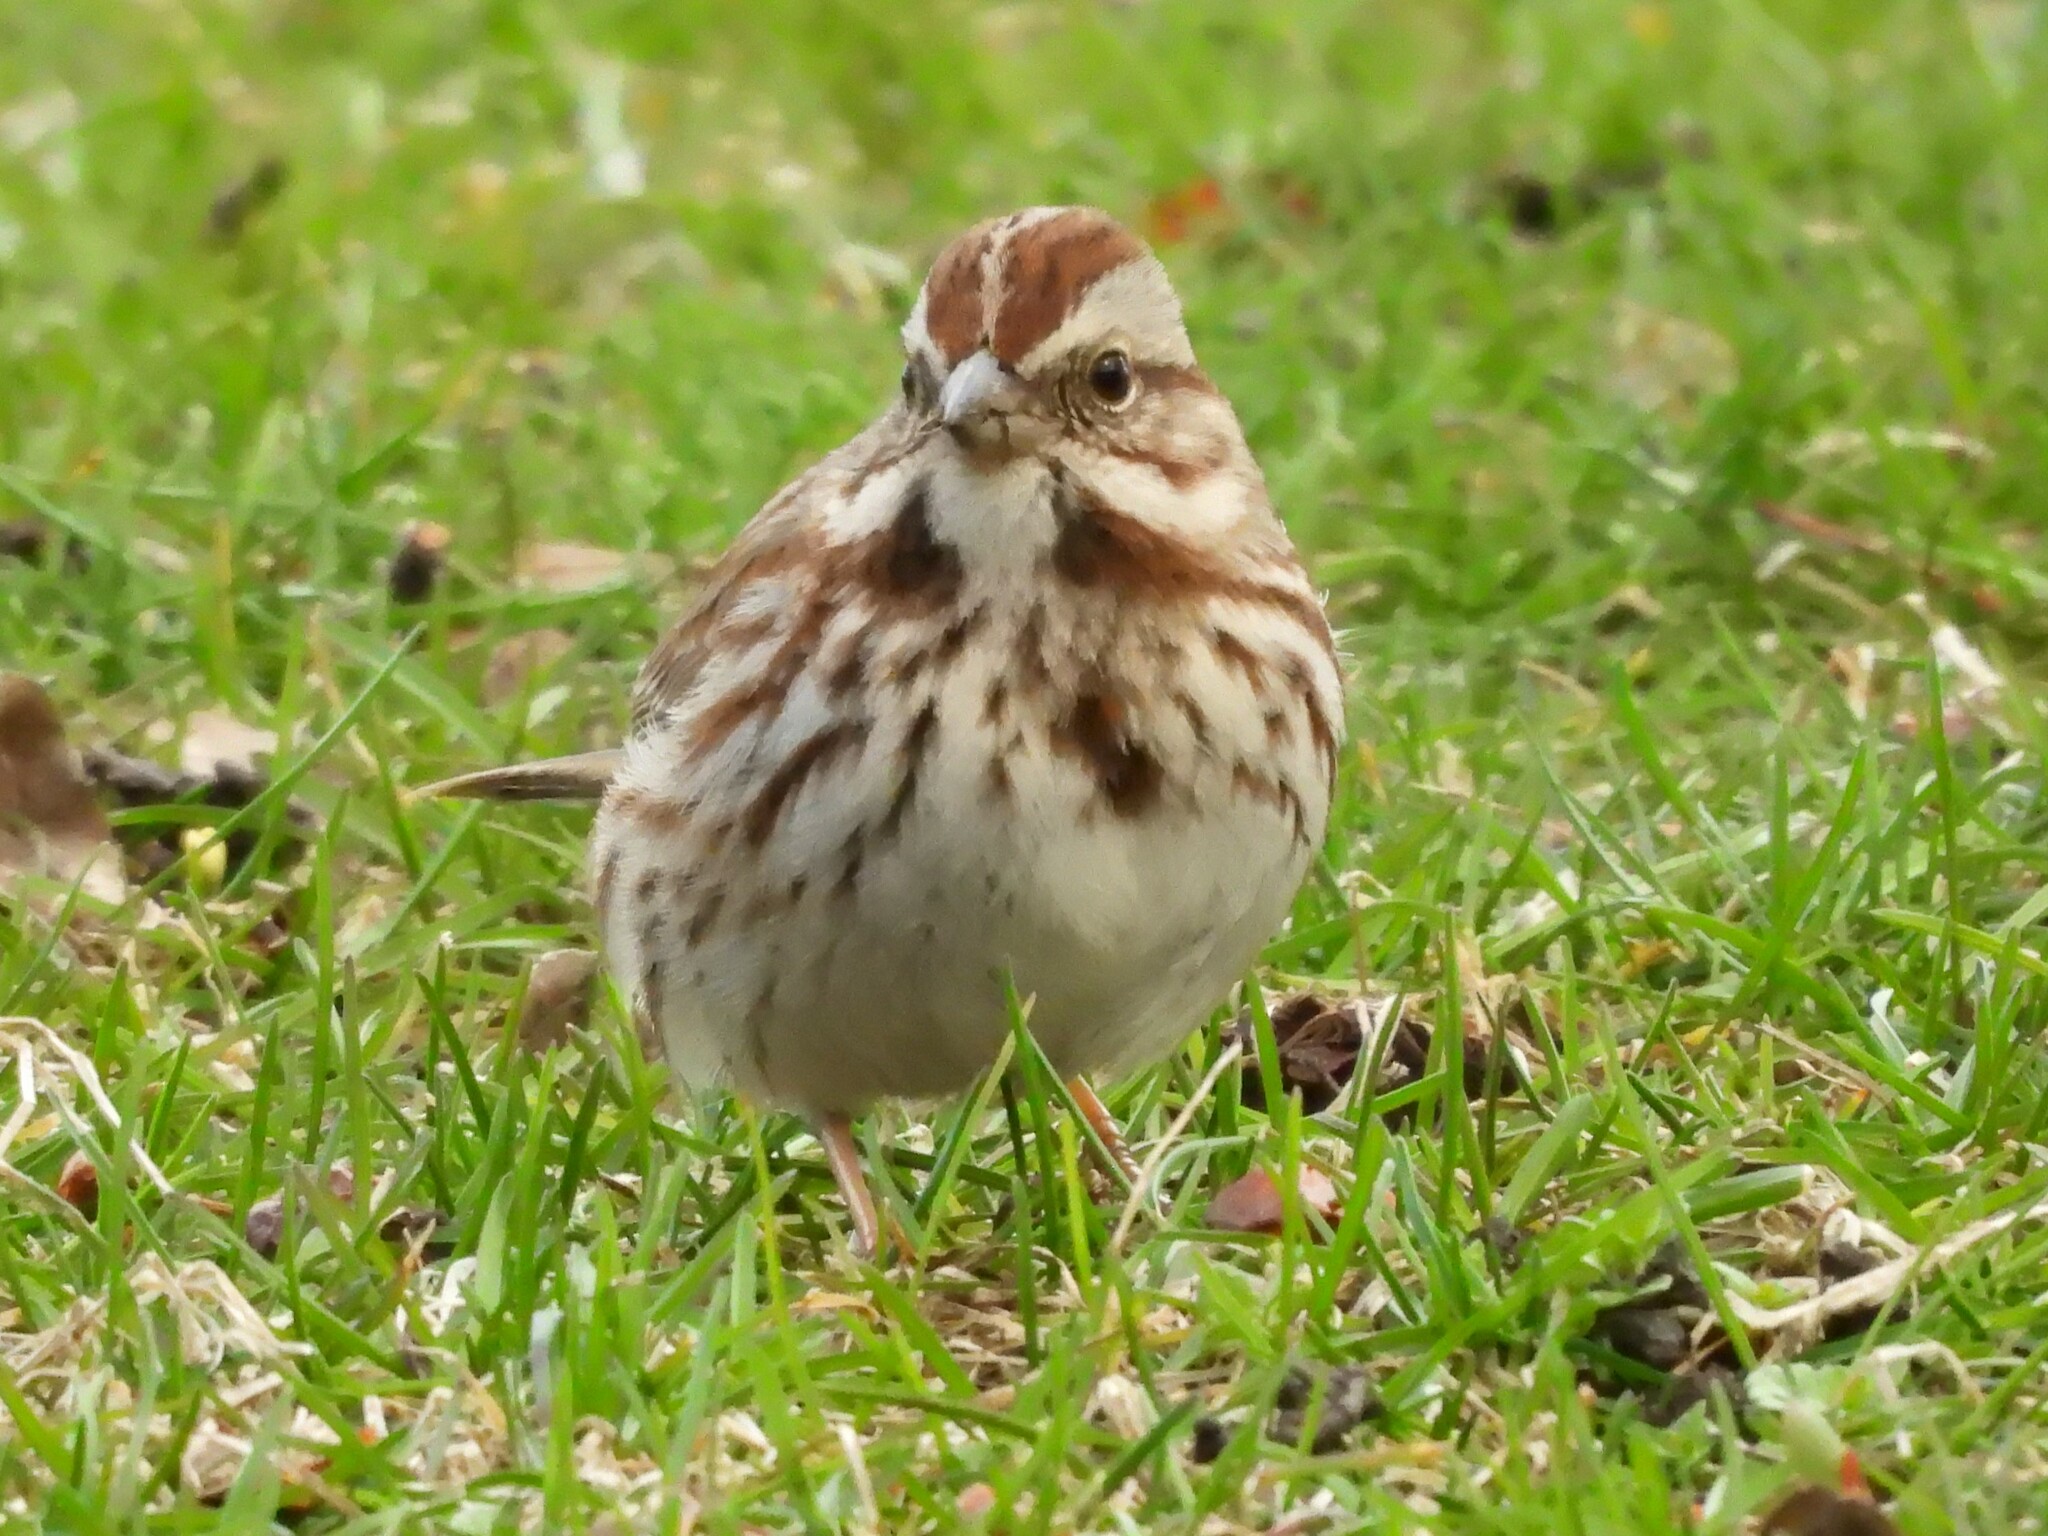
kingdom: Animalia
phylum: Chordata
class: Aves
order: Passeriformes
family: Passerellidae
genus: Melospiza
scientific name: Melospiza melodia
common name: Song sparrow
